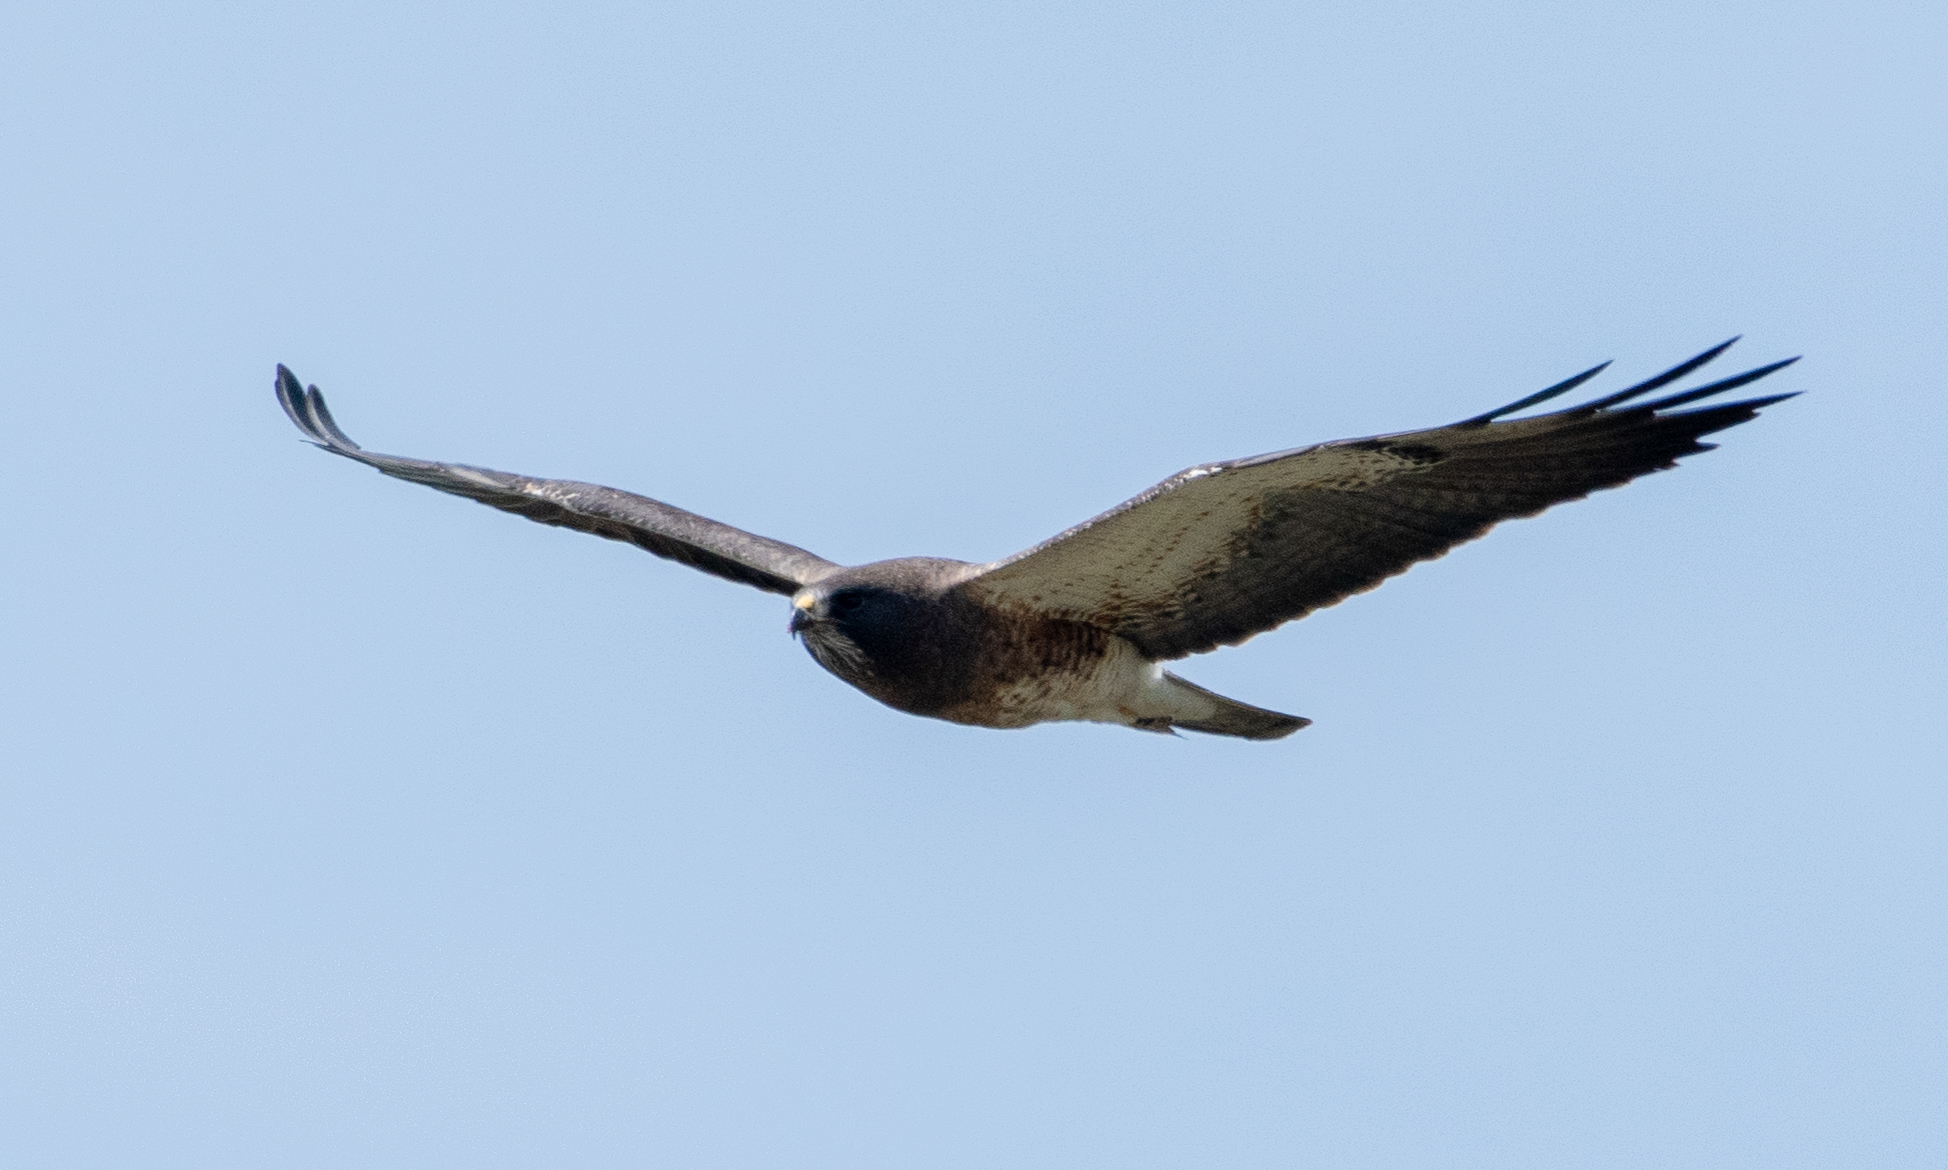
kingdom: Animalia
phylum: Chordata
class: Aves
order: Accipitriformes
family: Accipitridae
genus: Buteo
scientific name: Buteo swainsoni
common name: Swainson's hawk
